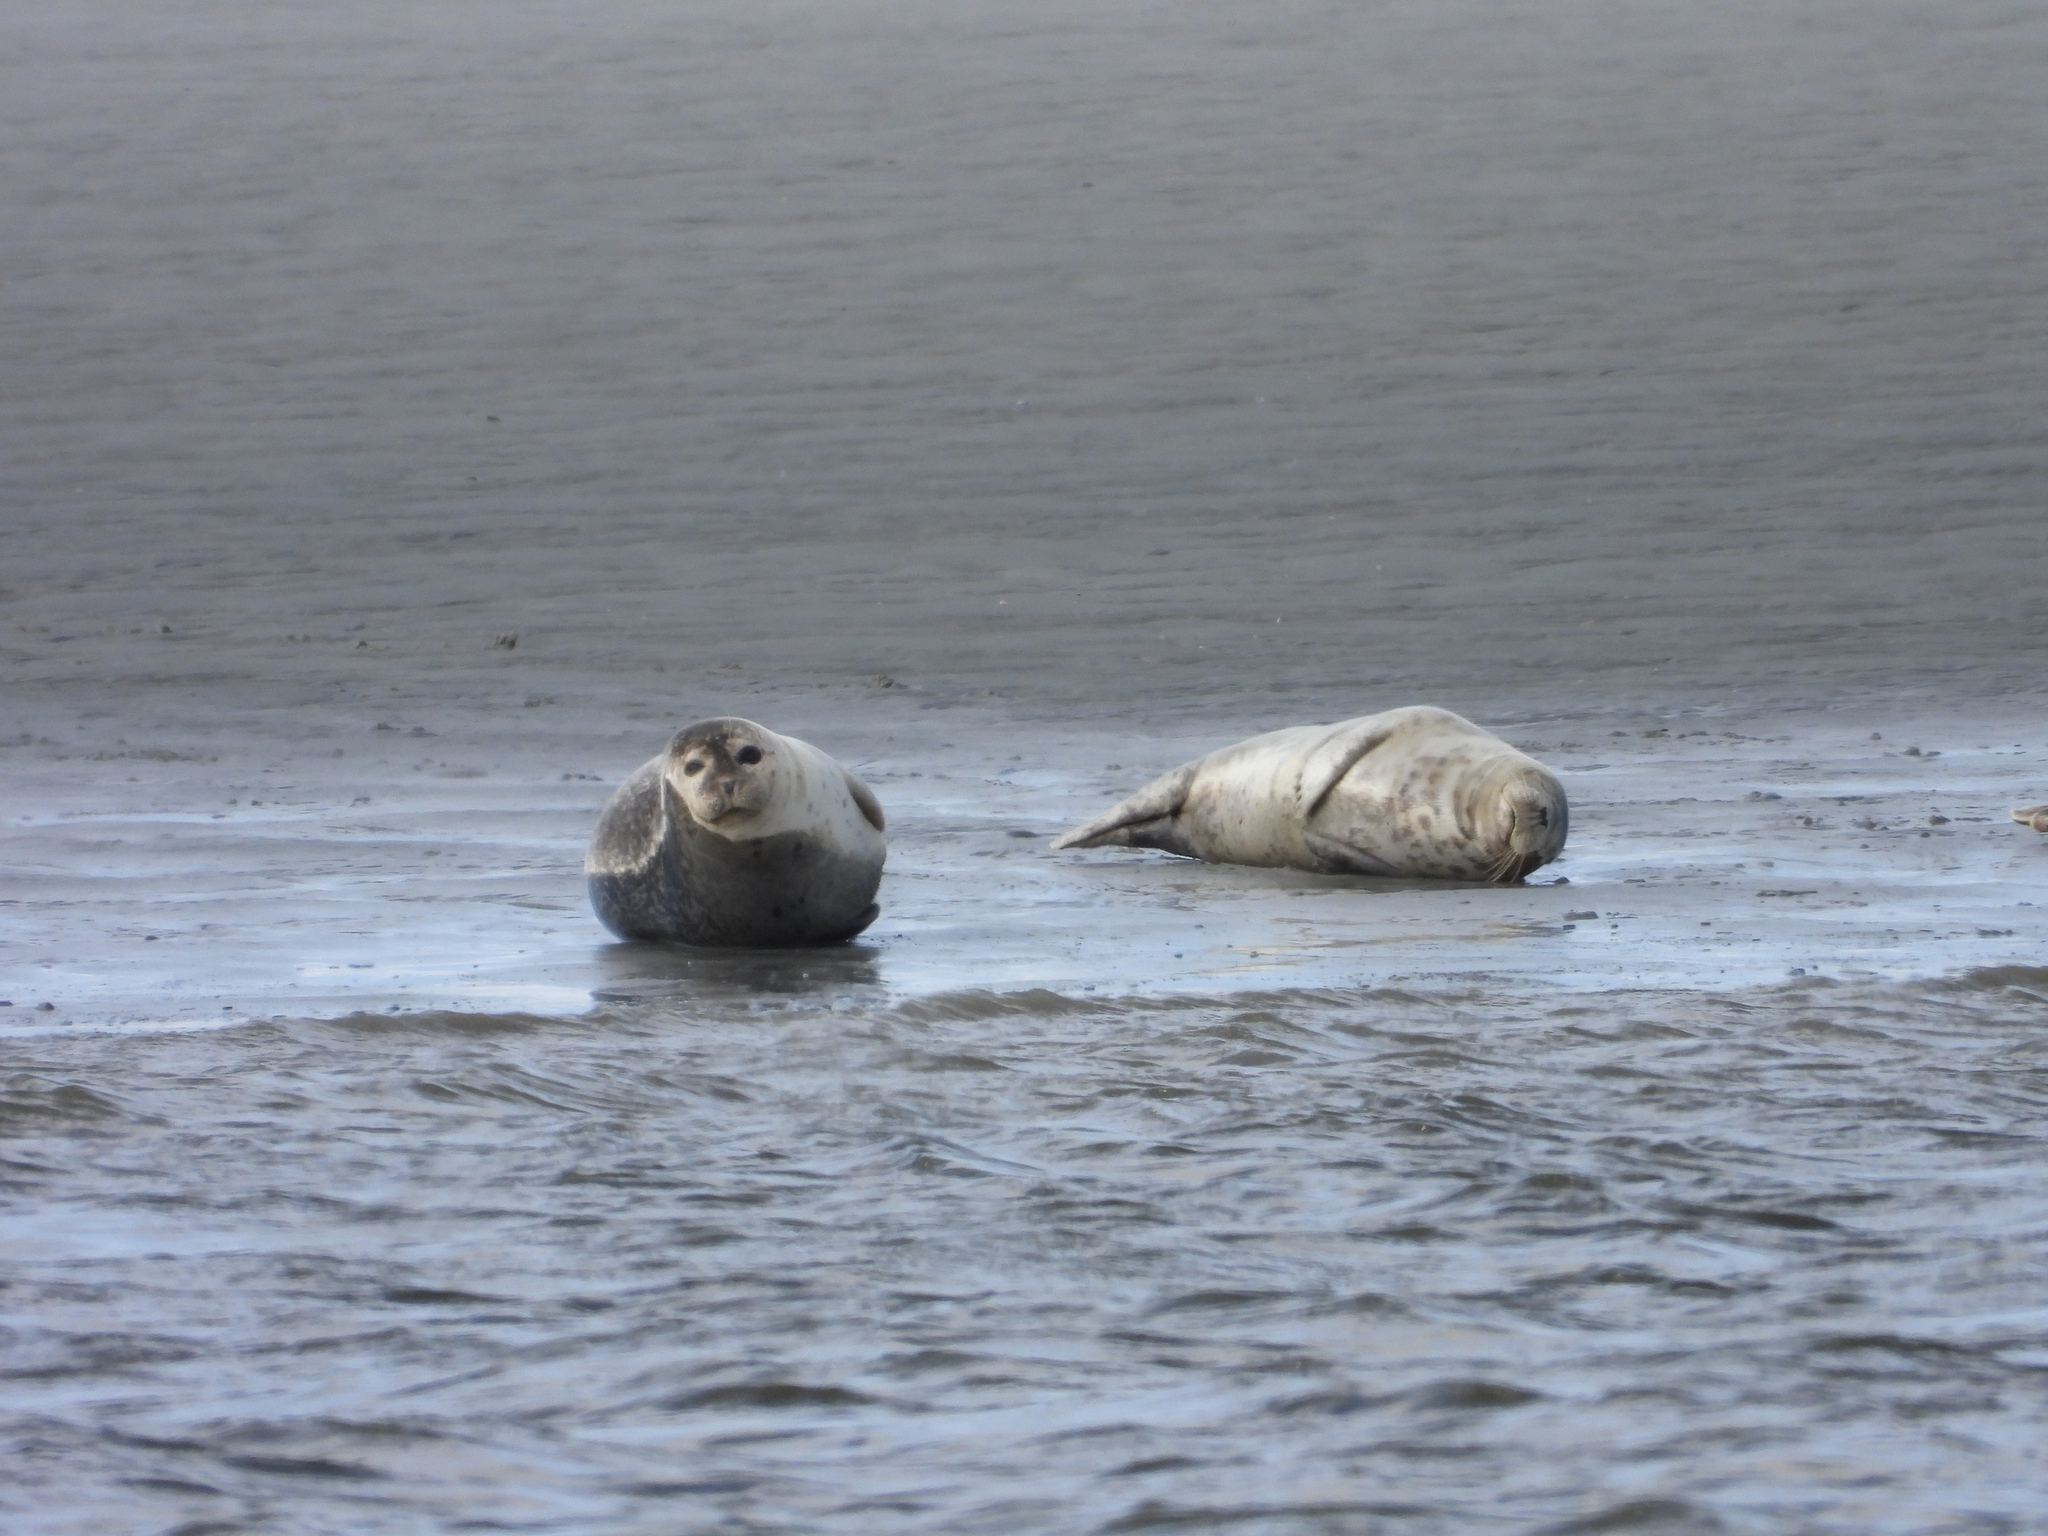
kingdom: Animalia
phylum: Chordata
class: Mammalia
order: Carnivora
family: Phocidae
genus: Halichoerus
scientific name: Halichoerus grypus
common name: Grey seal
